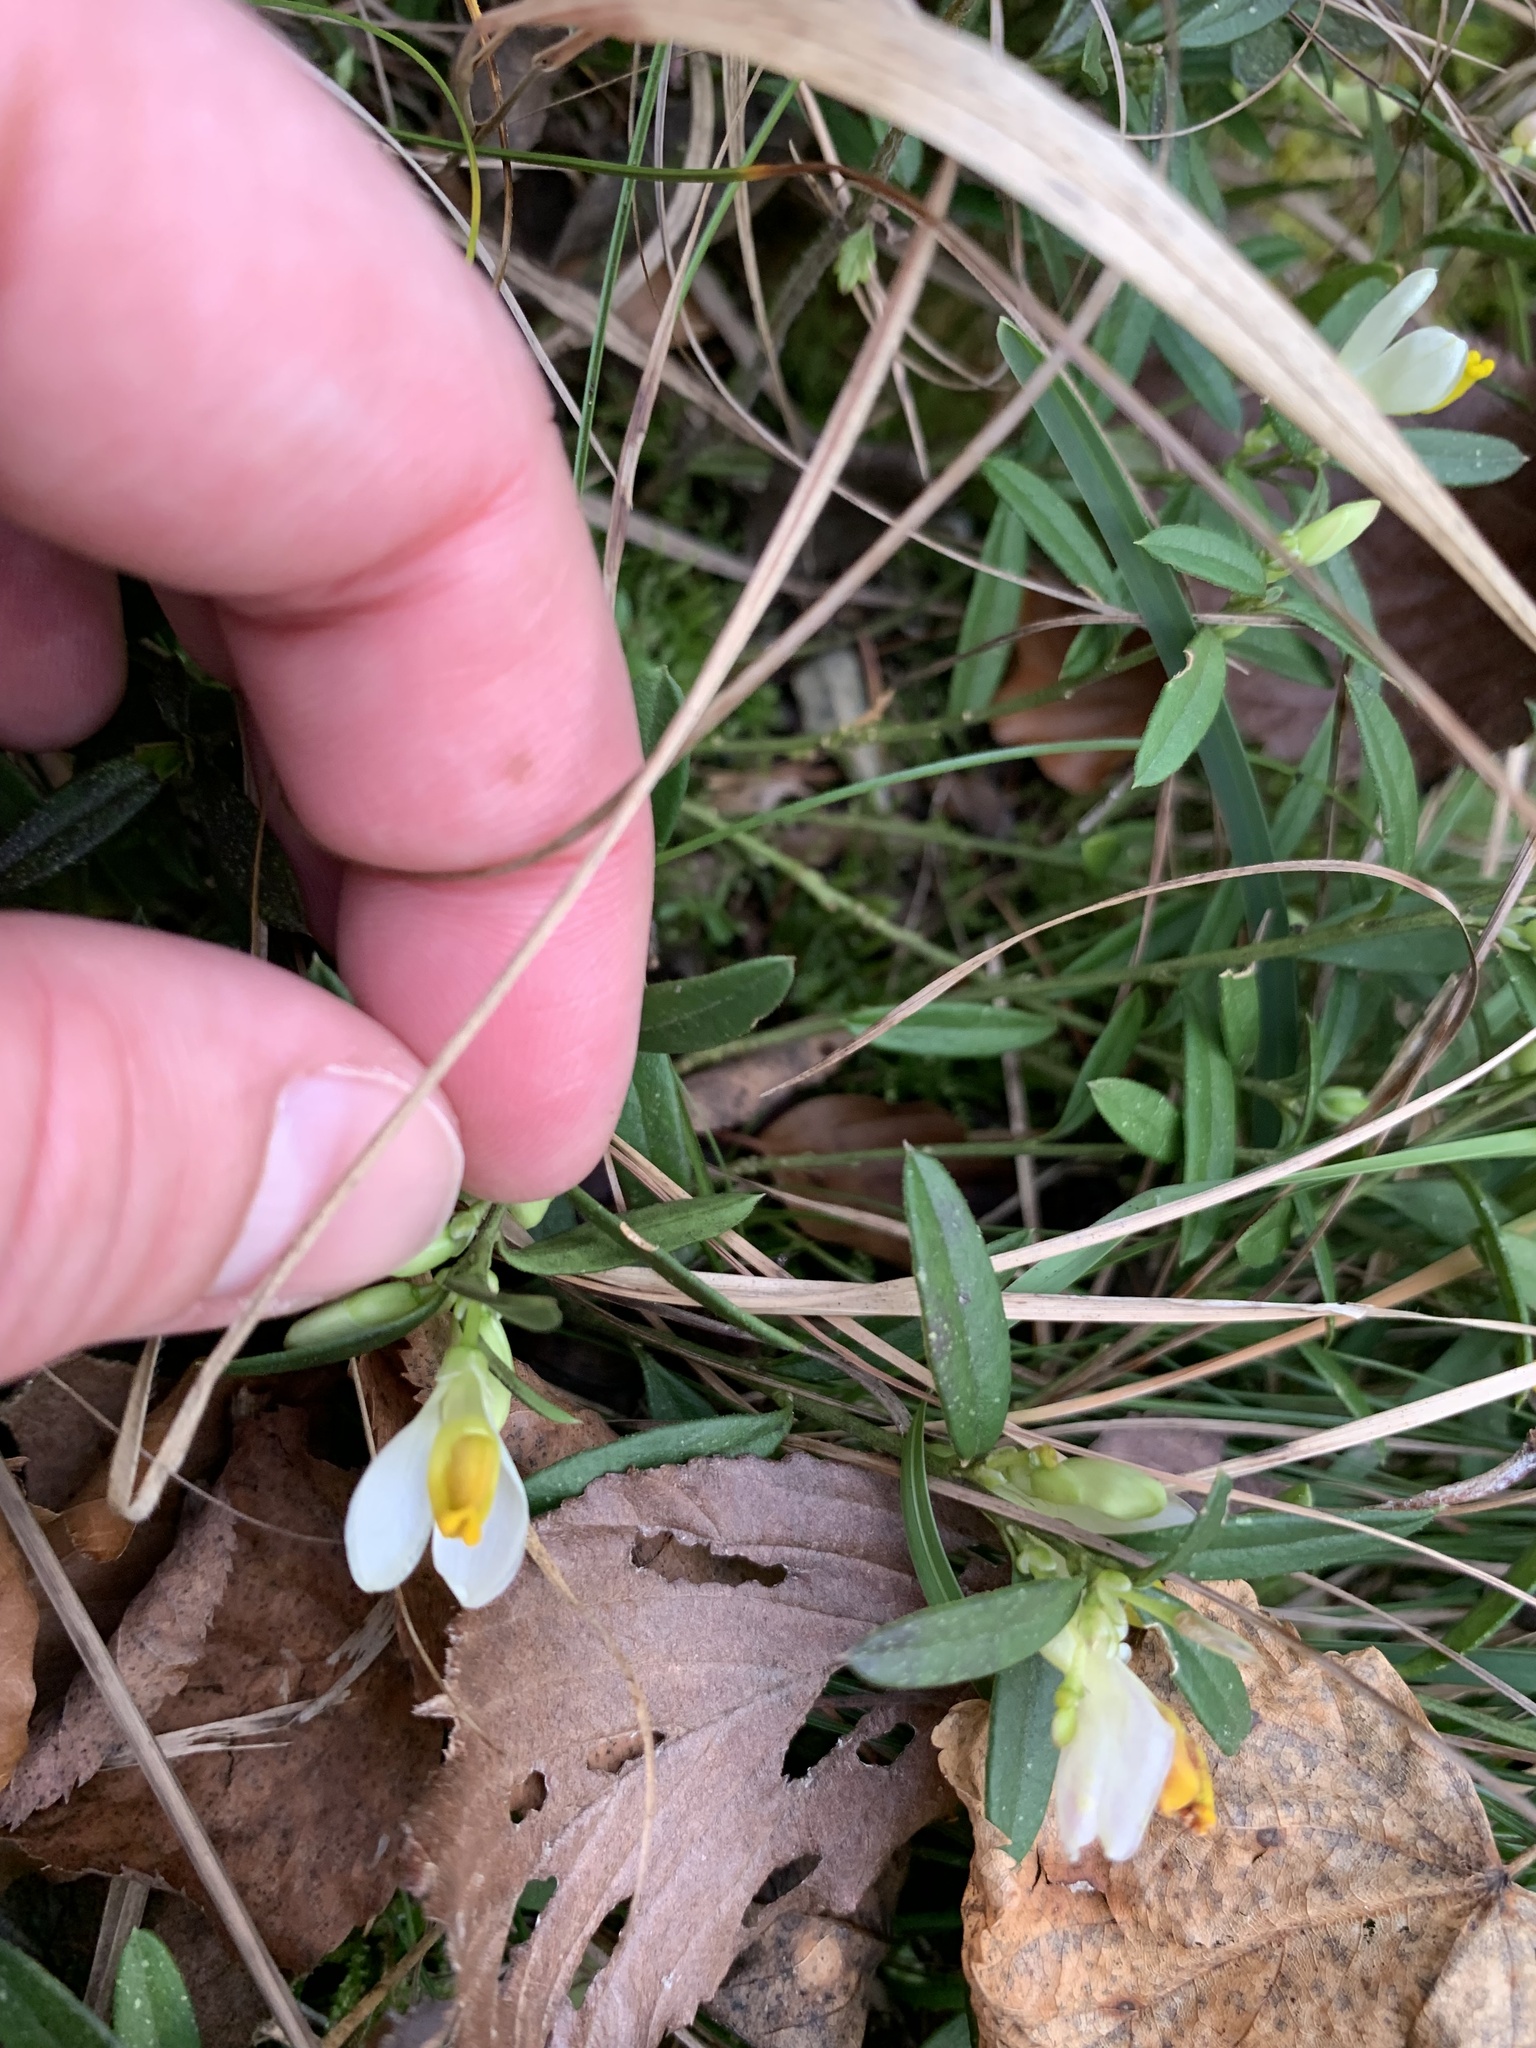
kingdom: Plantae
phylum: Tracheophyta
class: Magnoliopsida
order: Fabales
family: Polygalaceae
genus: Polygaloides
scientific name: Polygaloides chamaebuxus
